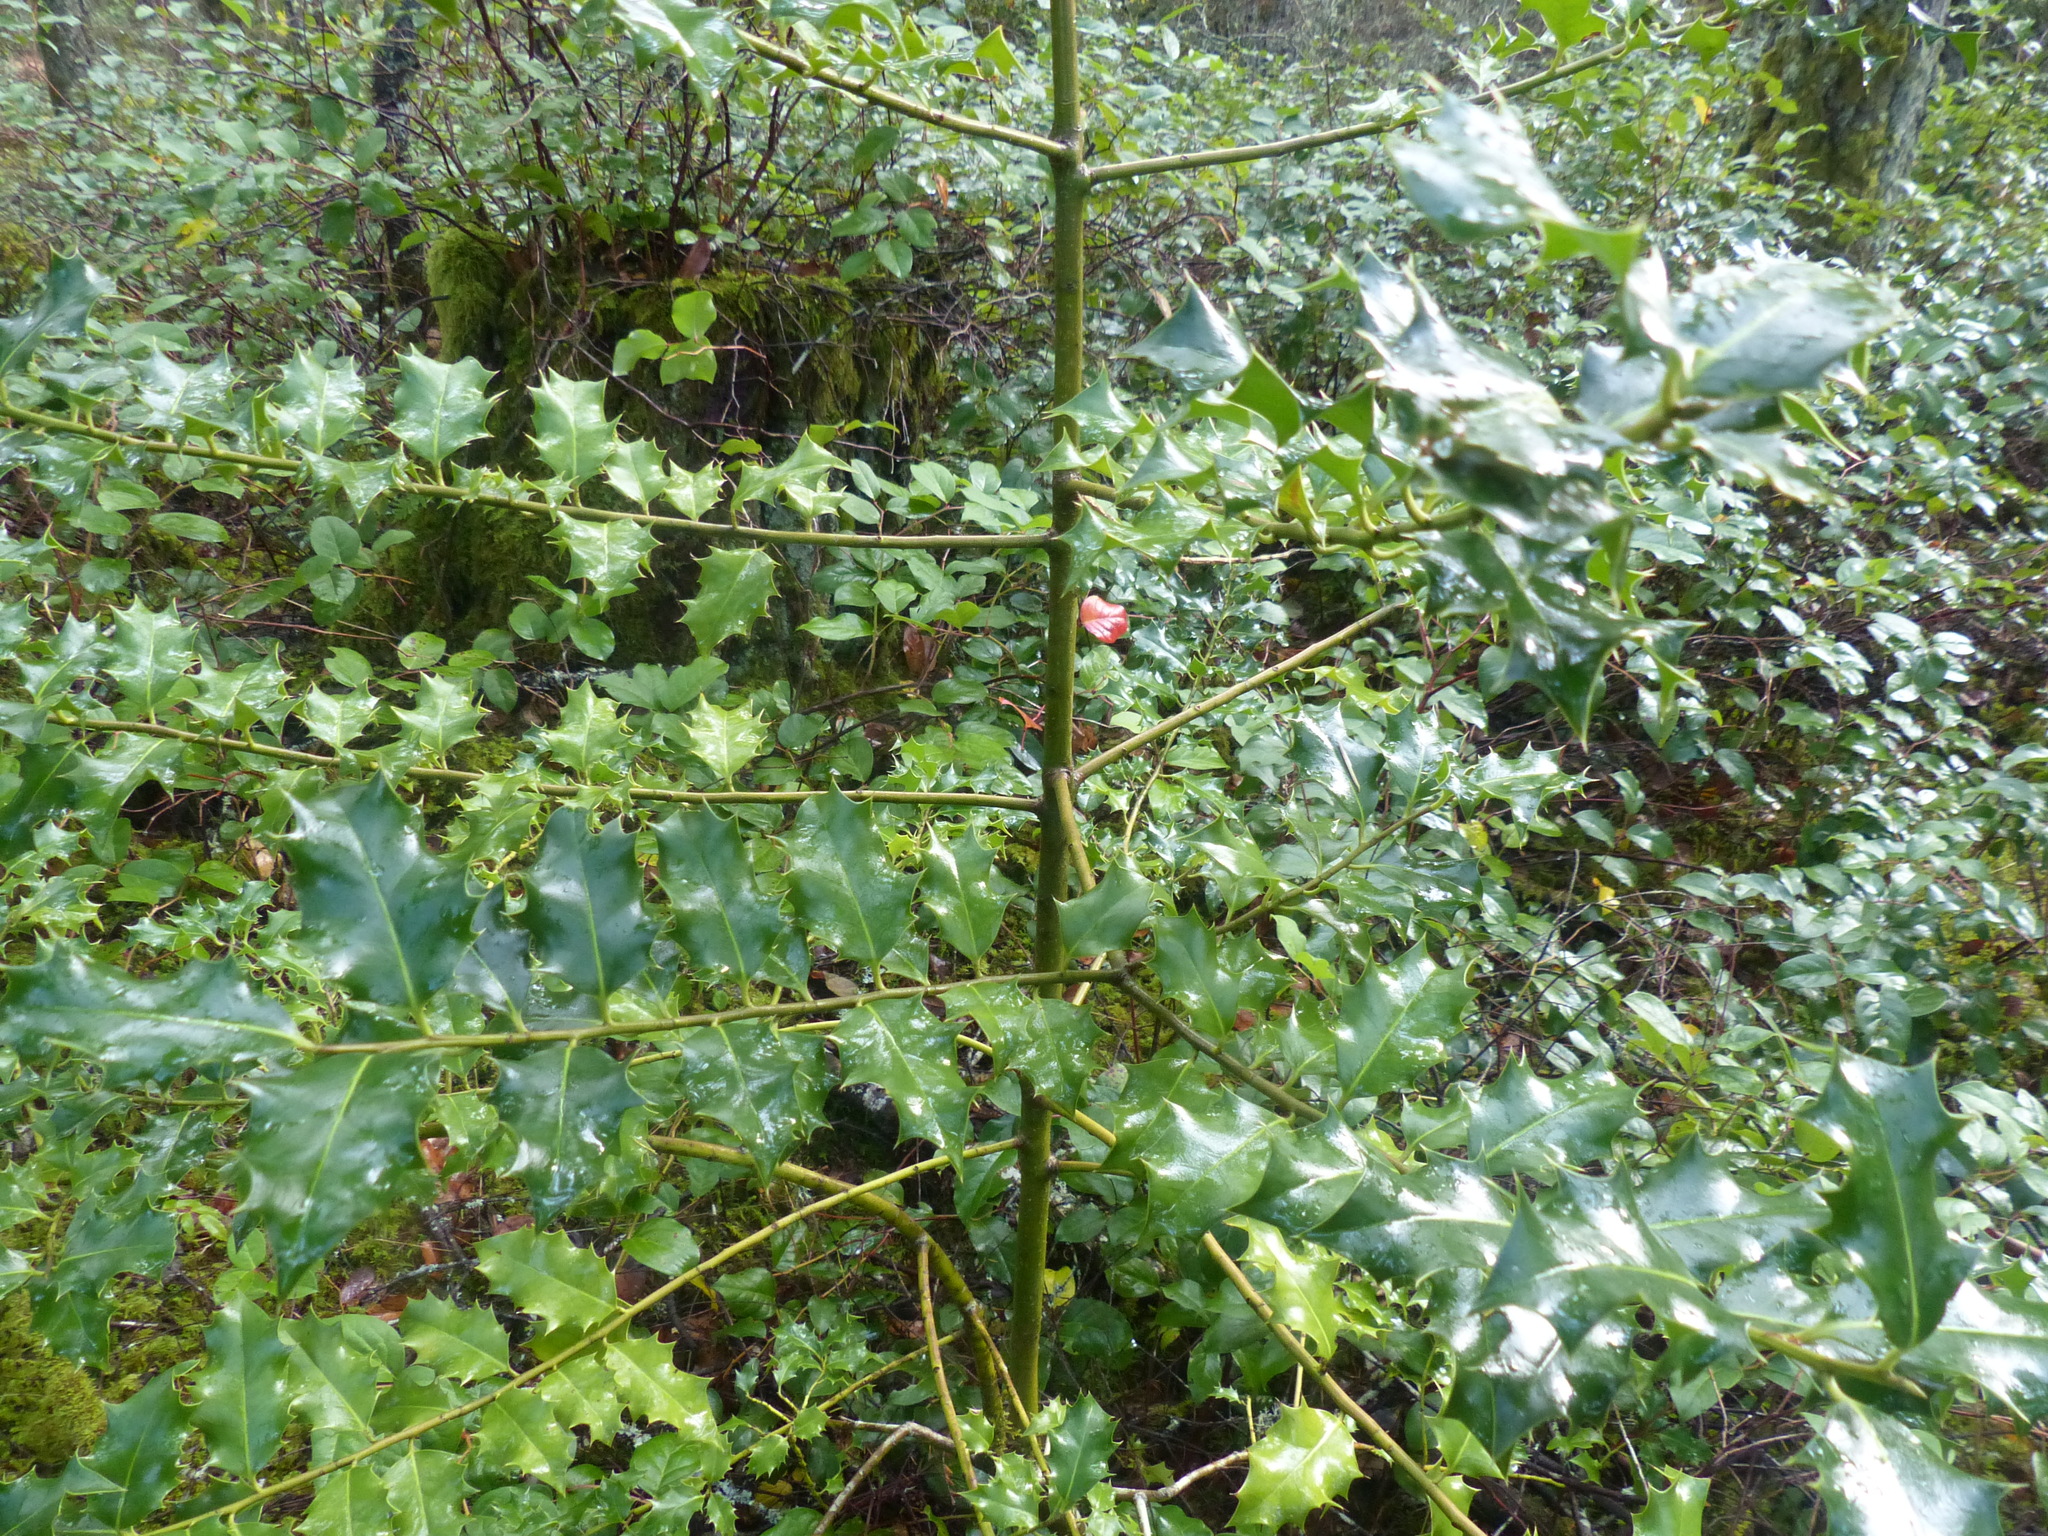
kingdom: Plantae
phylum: Tracheophyta
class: Magnoliopsida
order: Aquifoliales
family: Aquifoliaceae
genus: Ilex
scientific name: Ilex aquifolium
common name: English holly
